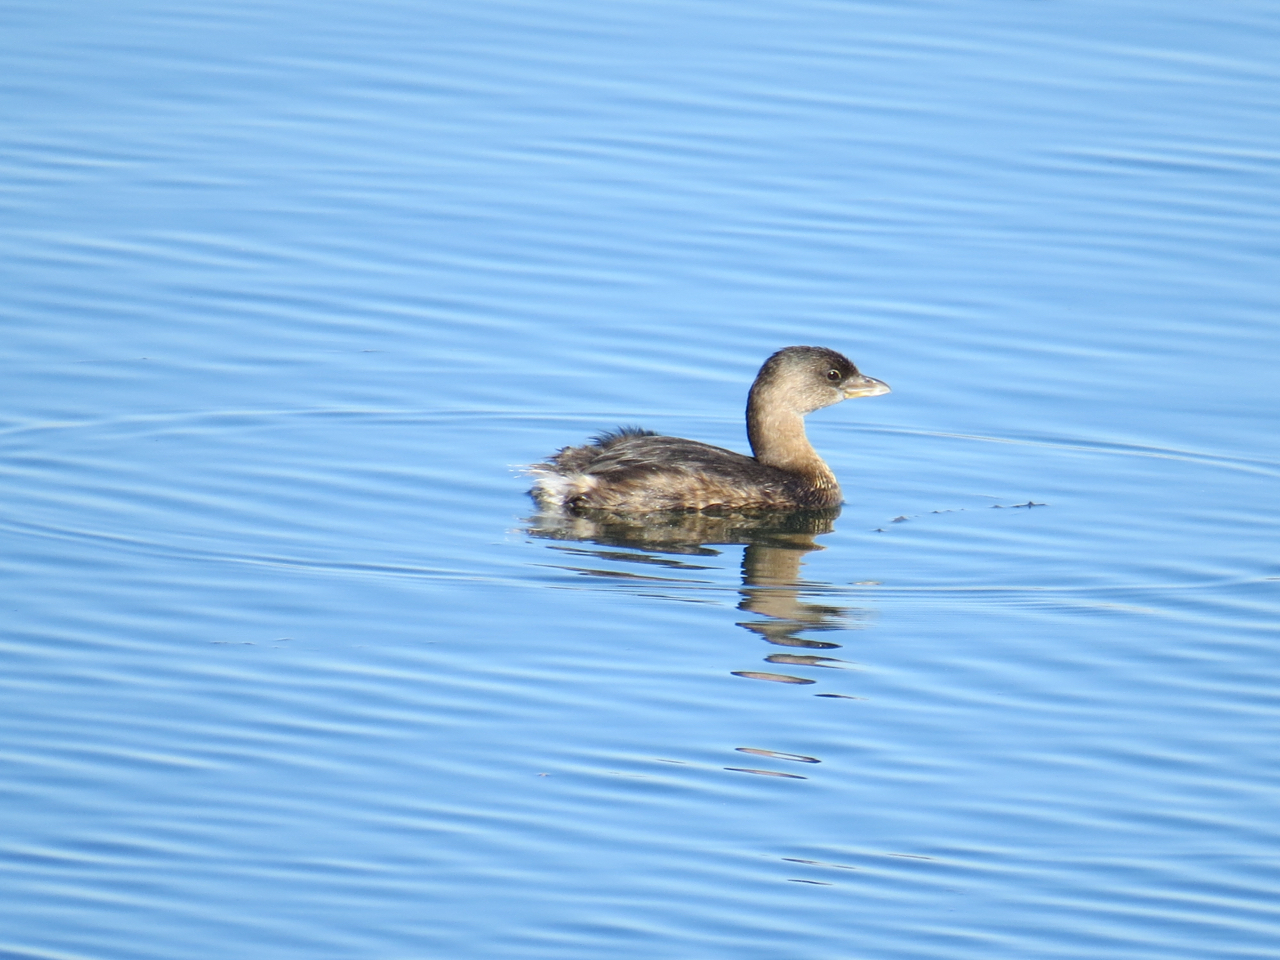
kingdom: Animalia
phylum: Chordata
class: Aves
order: Podicipediformes
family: Podicipedidae
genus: Podilymbus
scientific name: Podilymbus podiceps
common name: Pied-billed grebe
